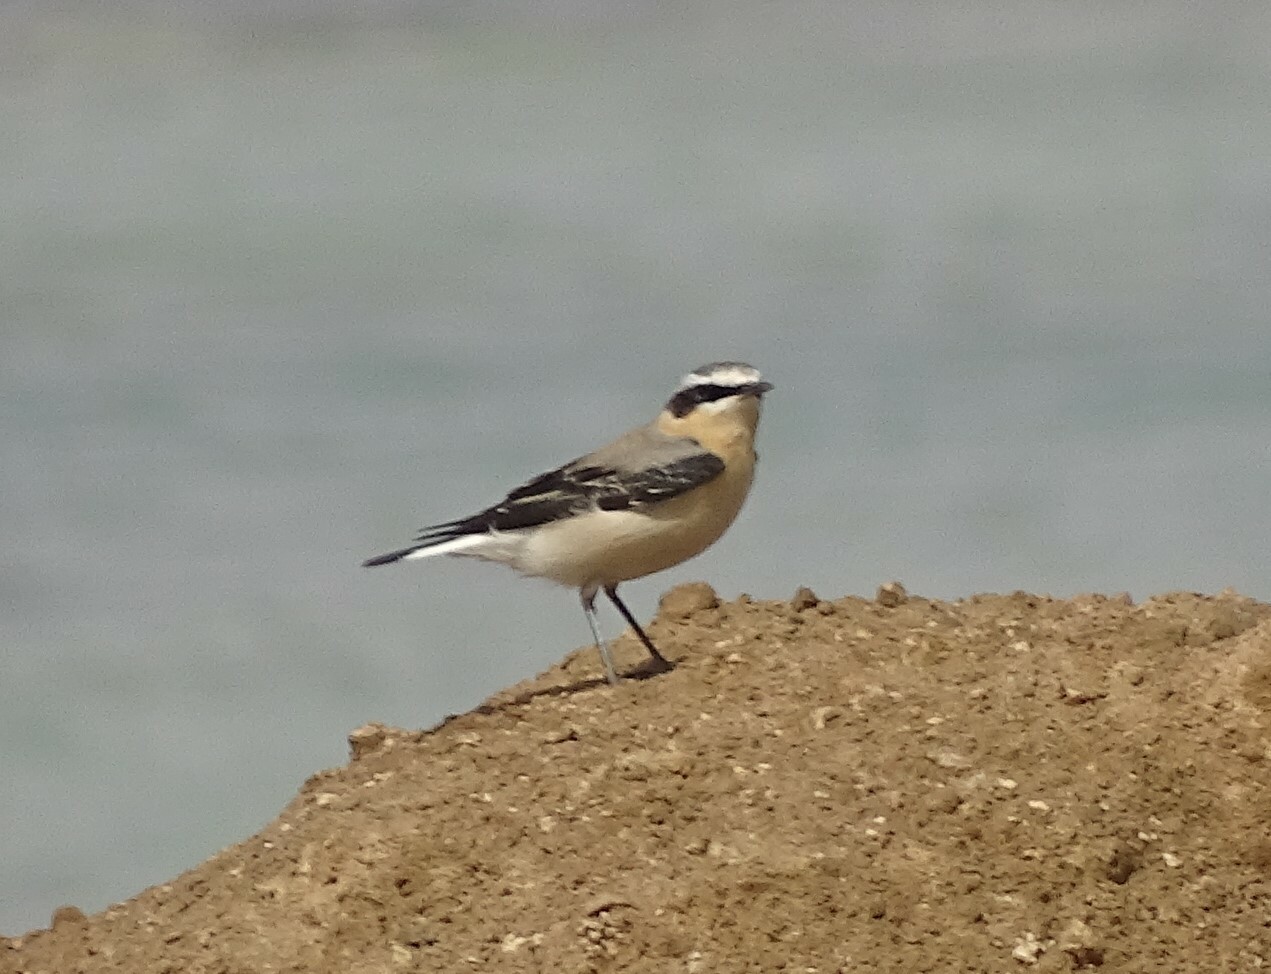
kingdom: Animalia
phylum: Chordata
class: Aves
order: Passeriformes
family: Muscicapidae
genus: Oenanthe
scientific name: Oenanthe oenanthe
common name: Northern wheatear
